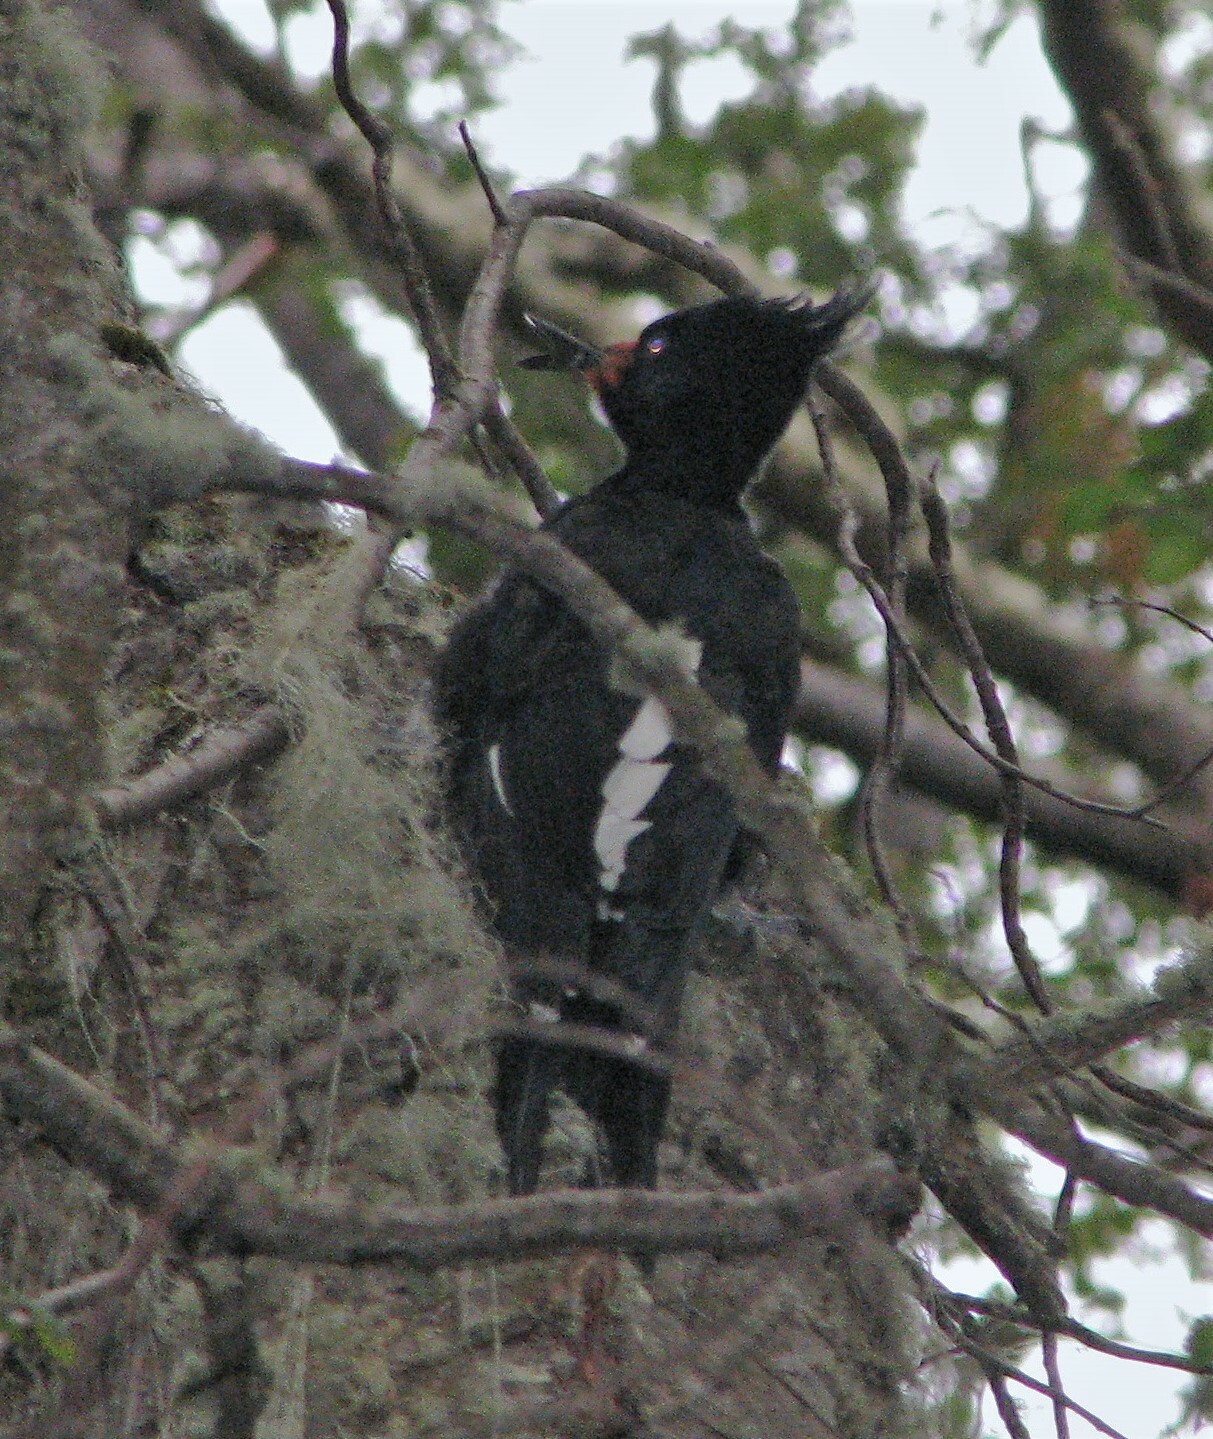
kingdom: Animalia
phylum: Chordata
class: Aves
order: Piciformes
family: Picidae
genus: Campephilus
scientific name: Campephilus magellanicus
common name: Magellanic woodpecker
